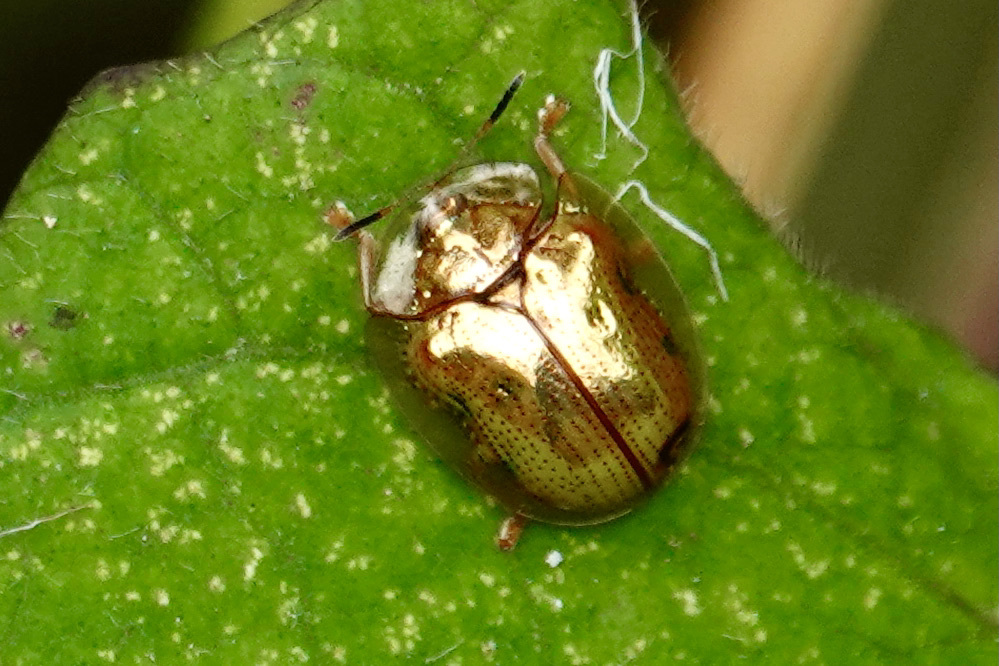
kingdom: Animalia
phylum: Arthropoda
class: Insecta
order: Coleoptera
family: Chrysomelidae
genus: Charidotella
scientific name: Charidotella sexpunctata
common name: Golden tortoise beetle
